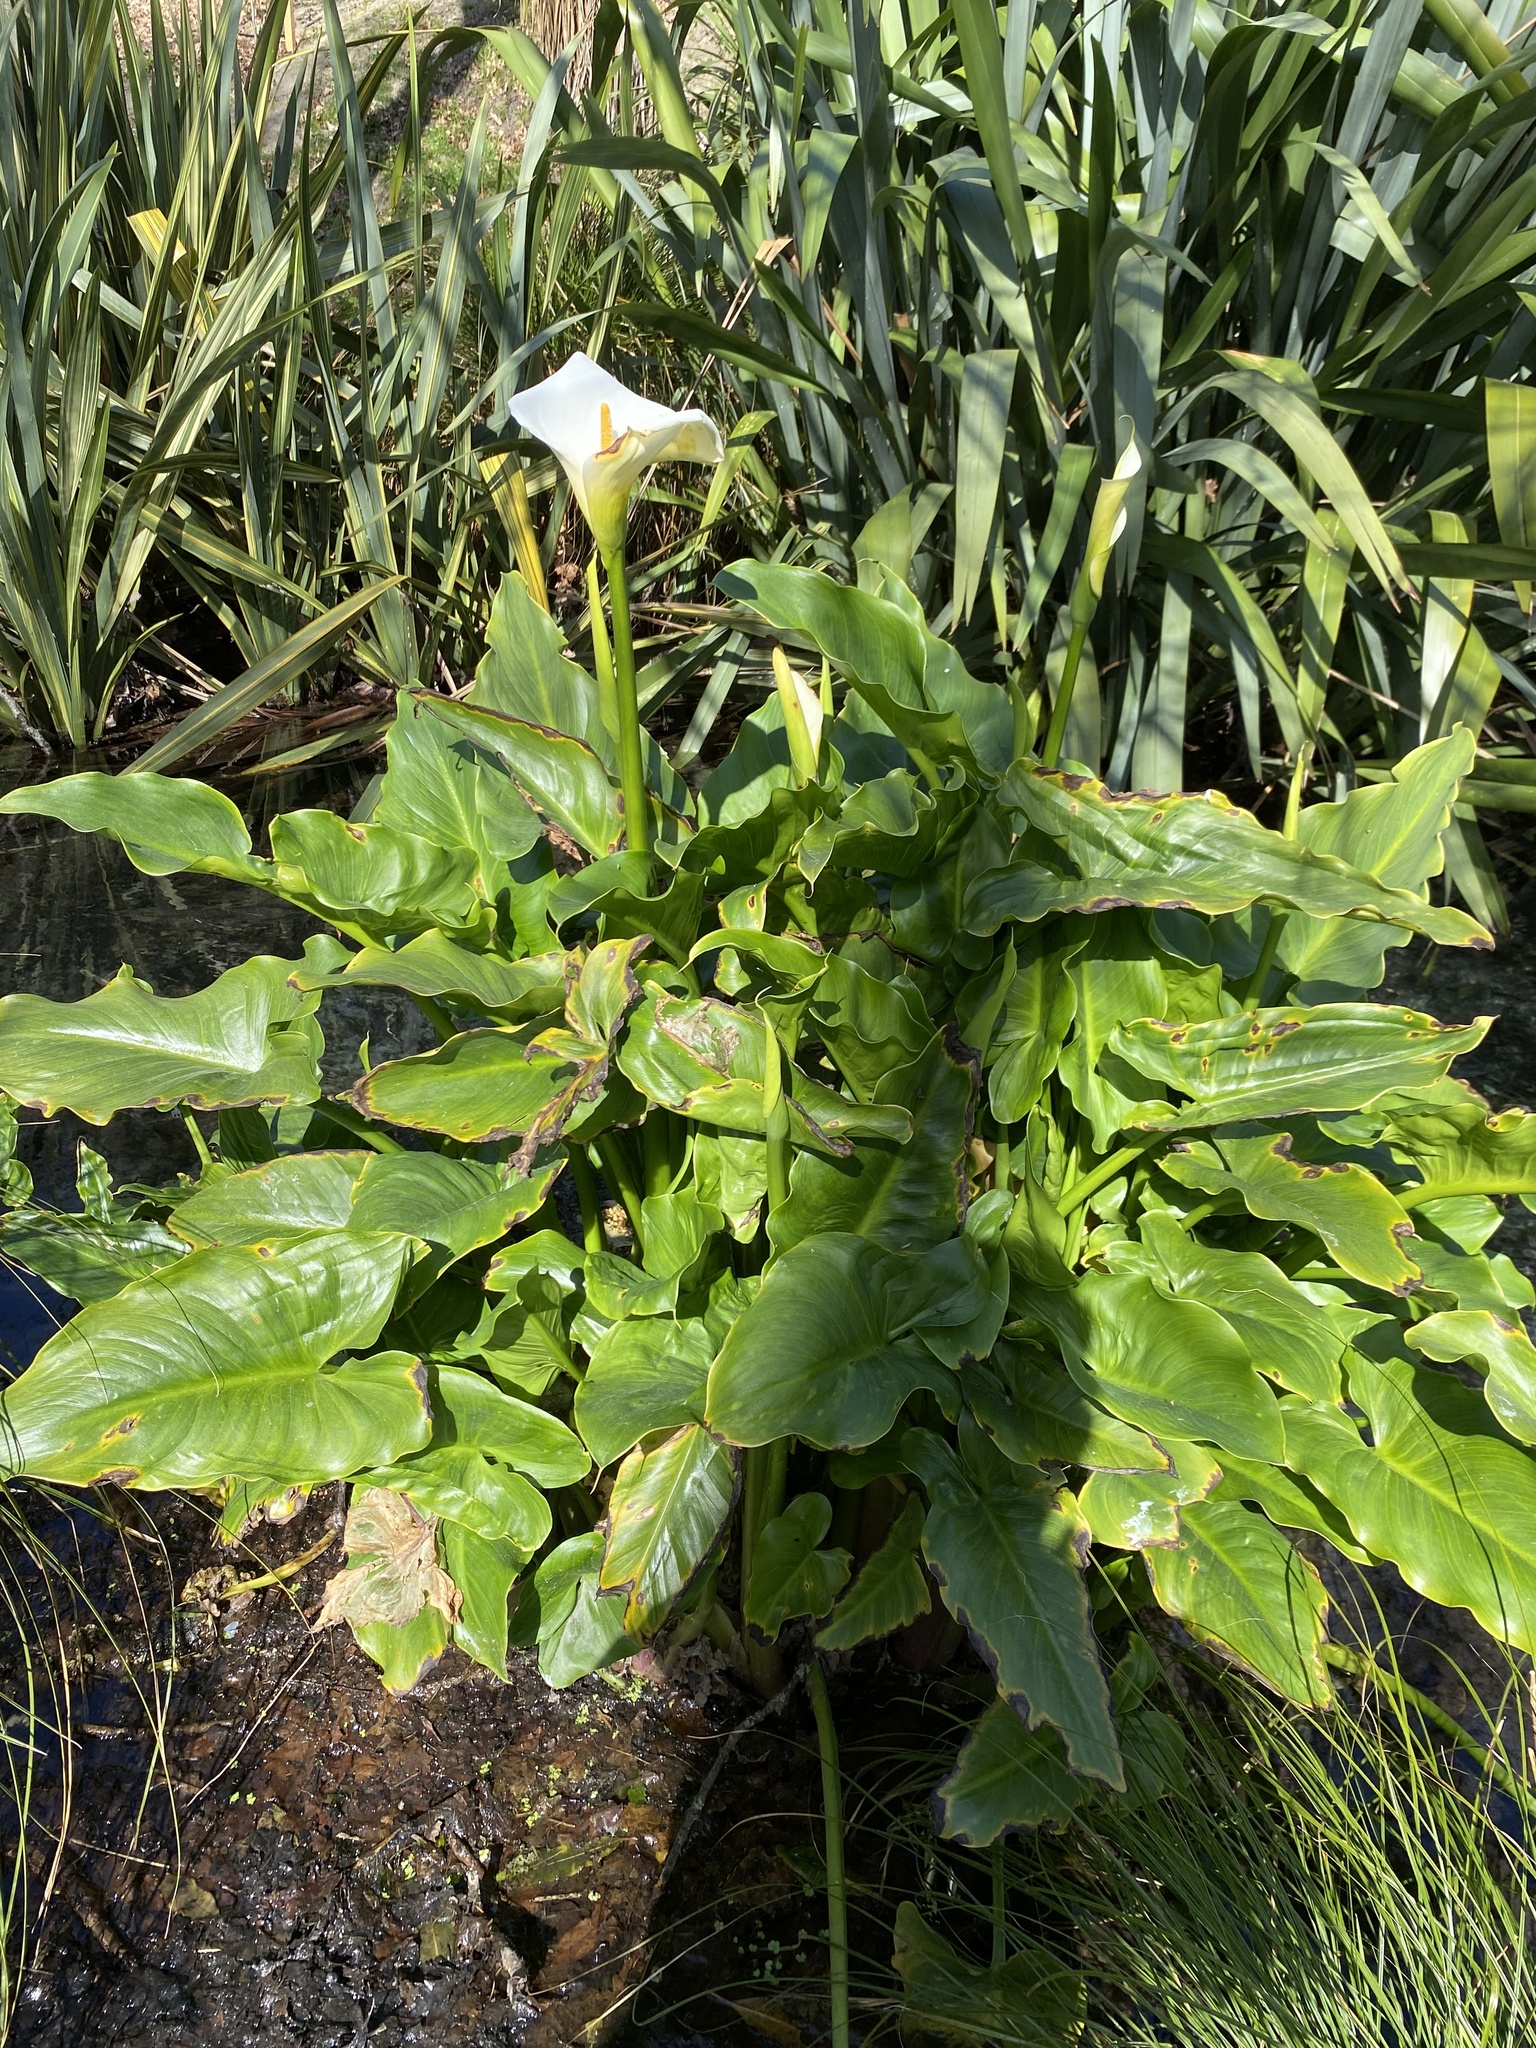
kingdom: Plantae
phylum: Tracheophyta
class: Liliopsida
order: Alismatales
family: Araceae
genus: Zantedeschia
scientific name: Zantedeschia aethiopica
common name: Altar-lily
